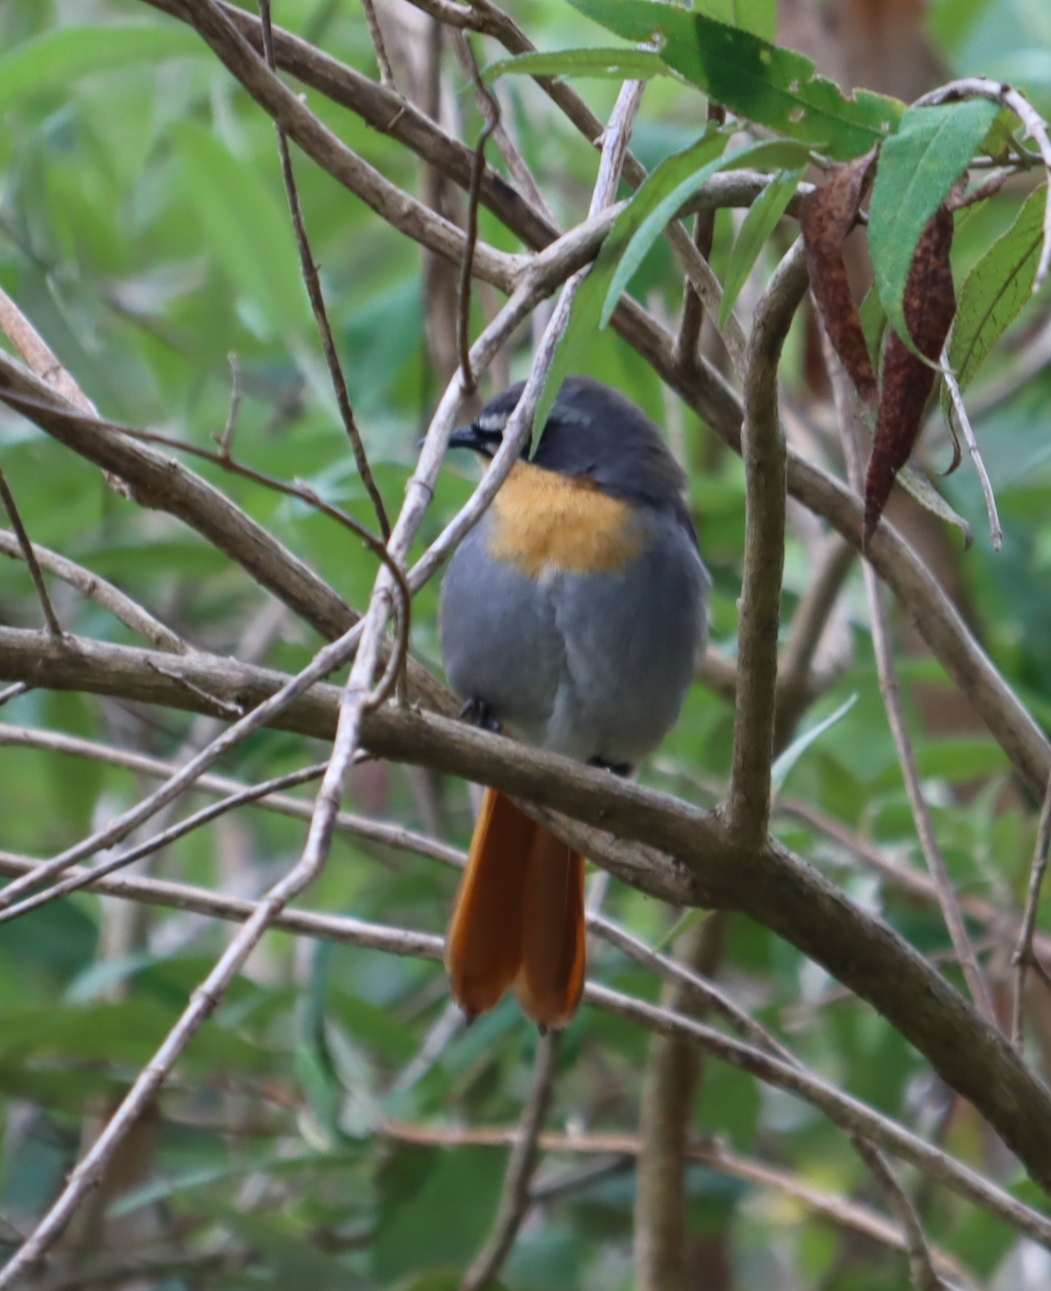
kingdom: Animalia
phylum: Chordata
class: Aves
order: Passeriformes
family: Muscicapidae
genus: Cossypha
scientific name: Cossypha caffra
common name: Cape robin-chat
